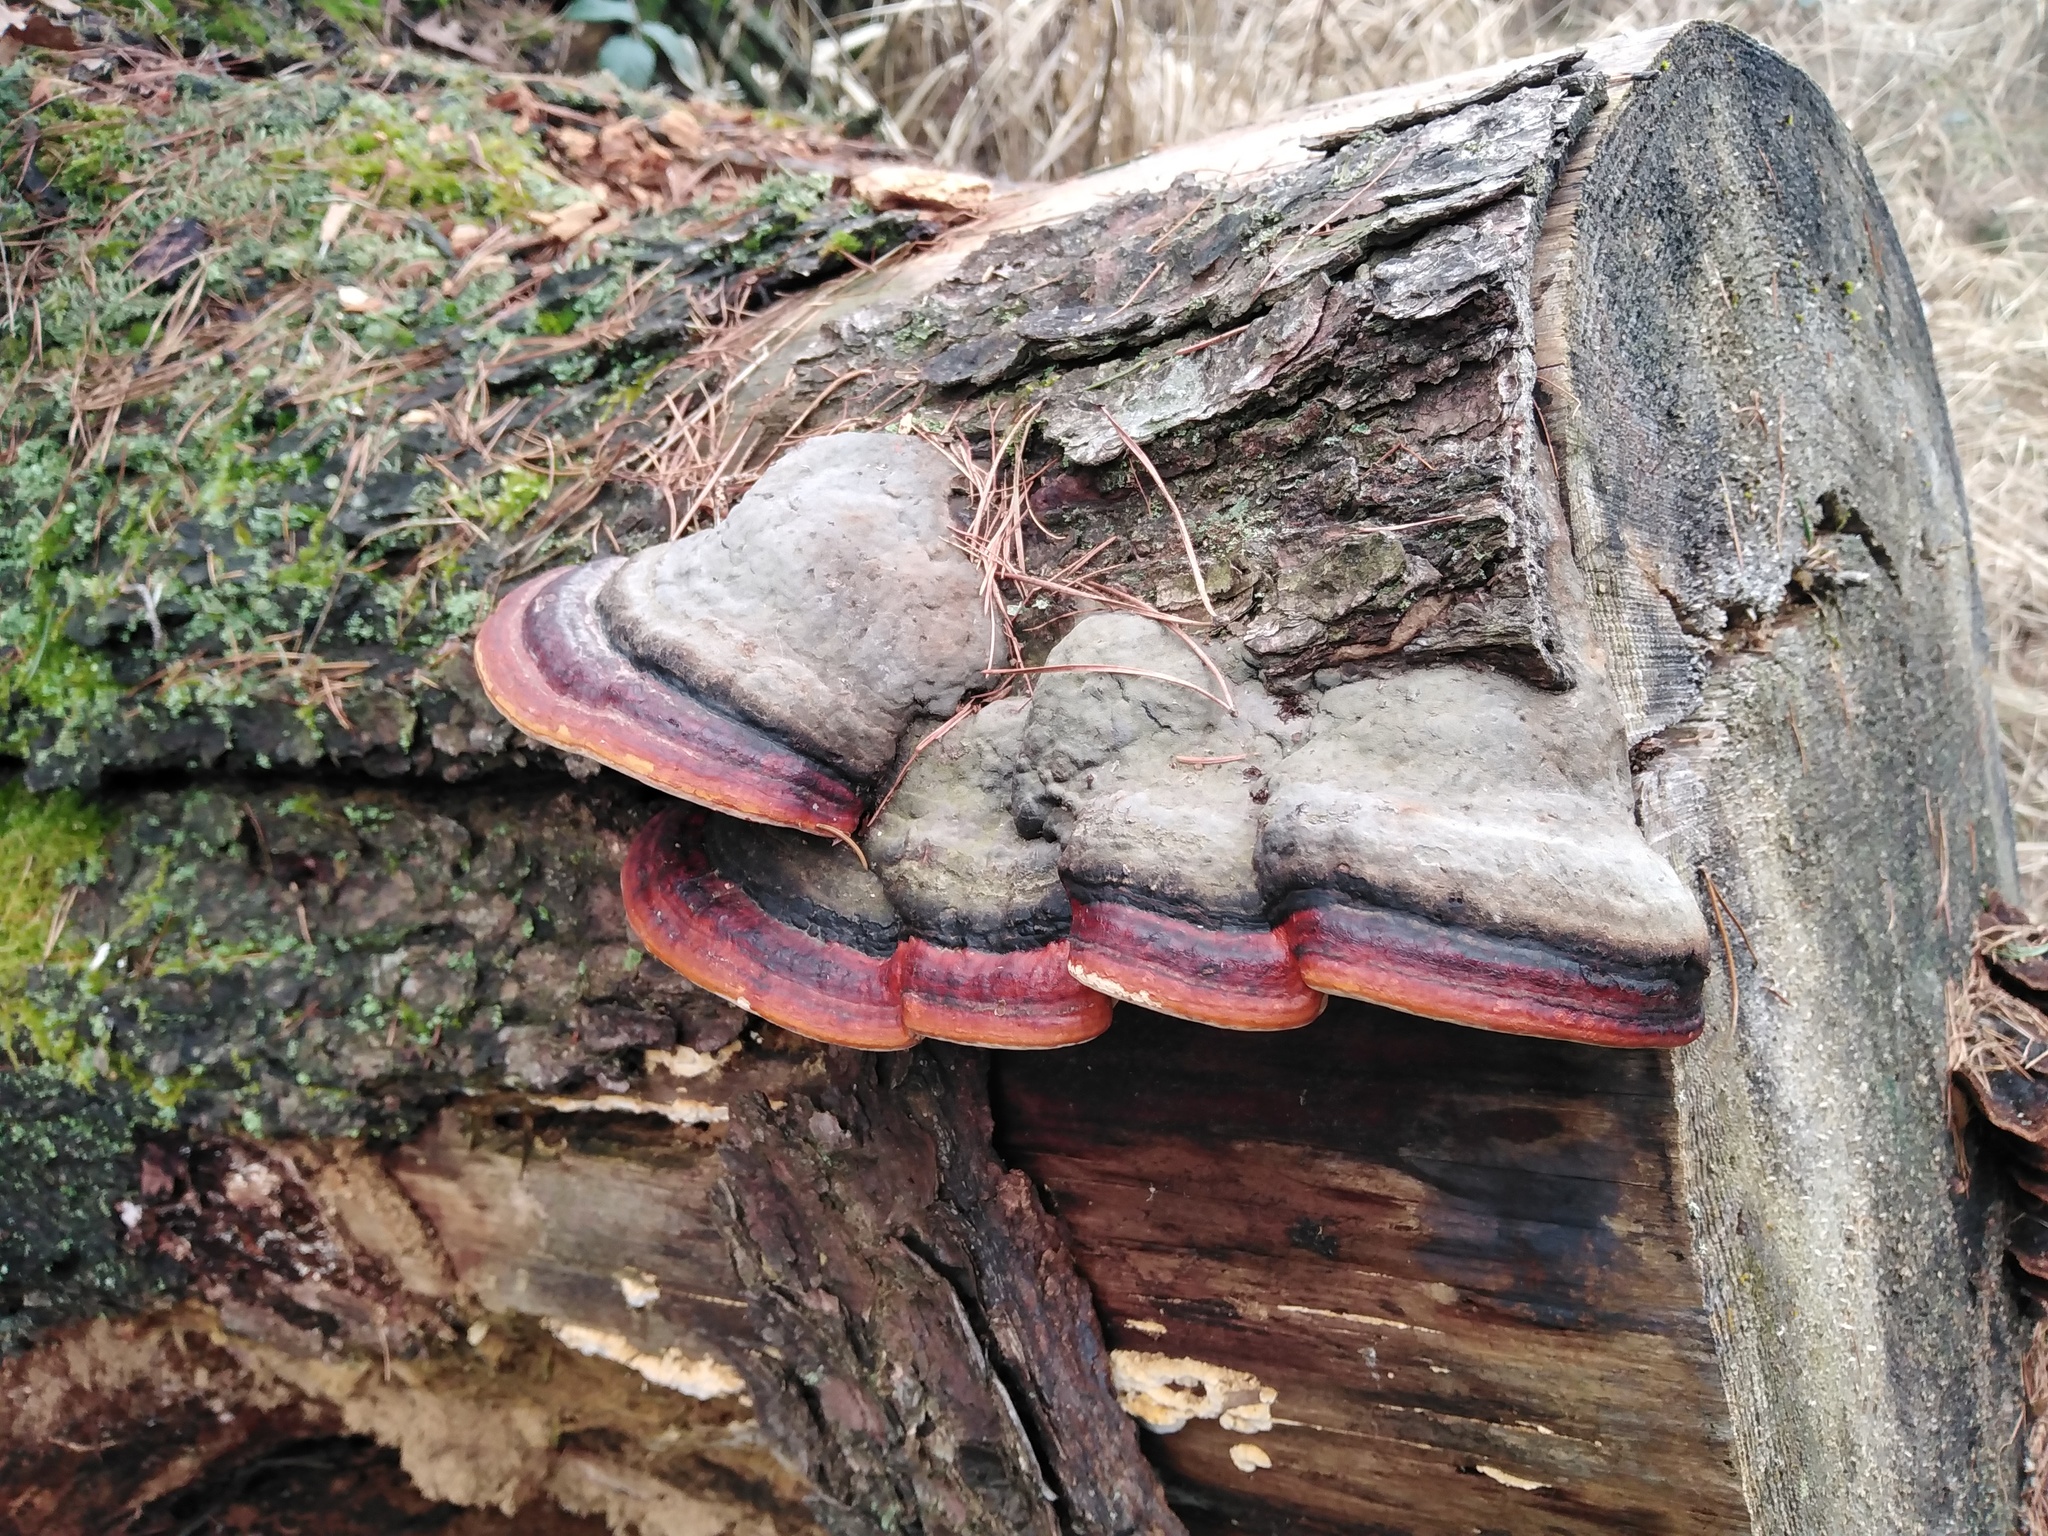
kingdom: Fungi
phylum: Basidiomycota
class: Agaricomycetes
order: Polyporales
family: Fomitopsidaceae
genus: Fomitopsis
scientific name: Fomitopsis pinicola
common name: Red-belted bracket
